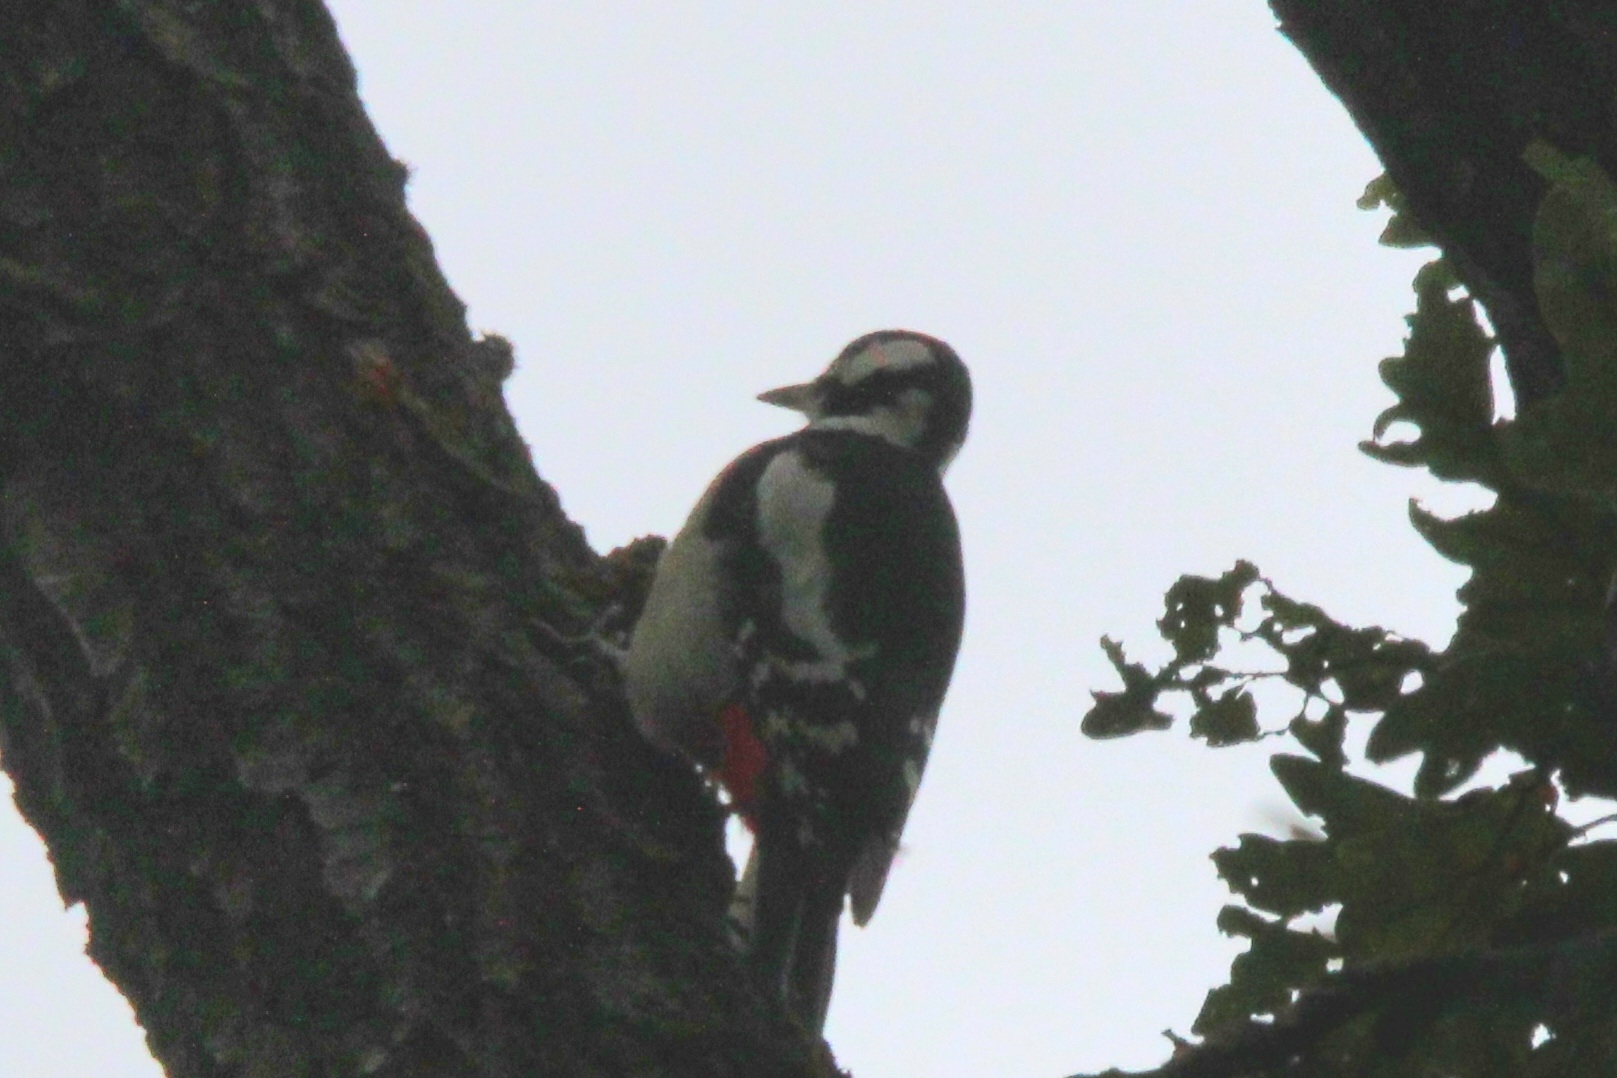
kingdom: Animalia
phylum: Chordata
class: Aves
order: Piciformes
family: Picidae
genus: Dendrocopos
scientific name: Dendrocopos major
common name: Great spotted woodpecker
